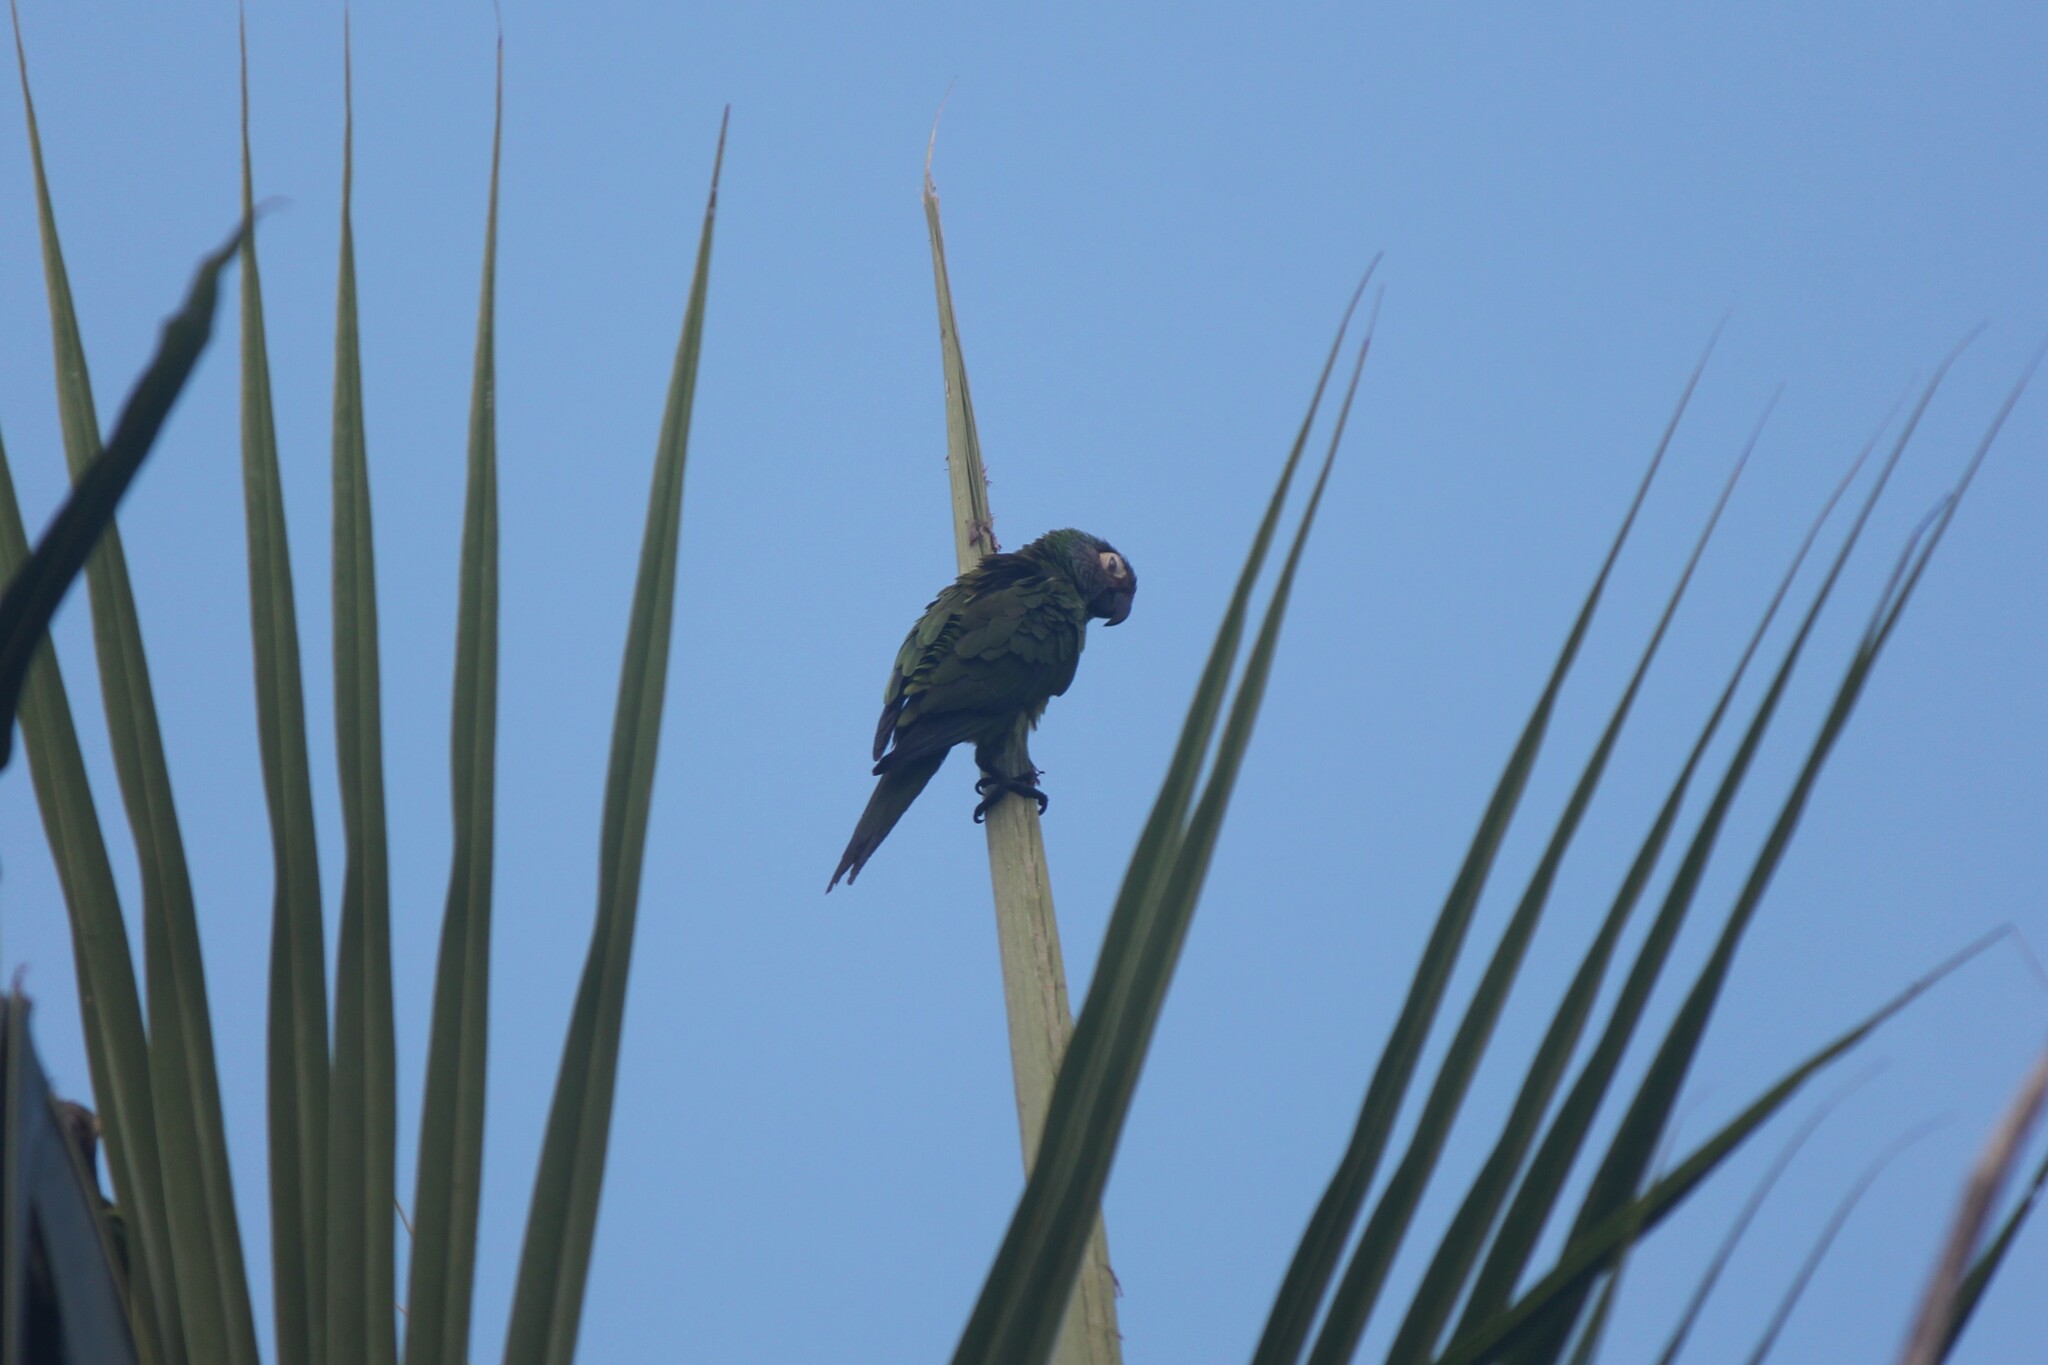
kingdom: Animalia
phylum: Chordata
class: Aves
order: Psittaciformes
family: Psittacidae
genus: Aratinga
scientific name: Aratinga weddellii
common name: Dusky-headed parakeet
